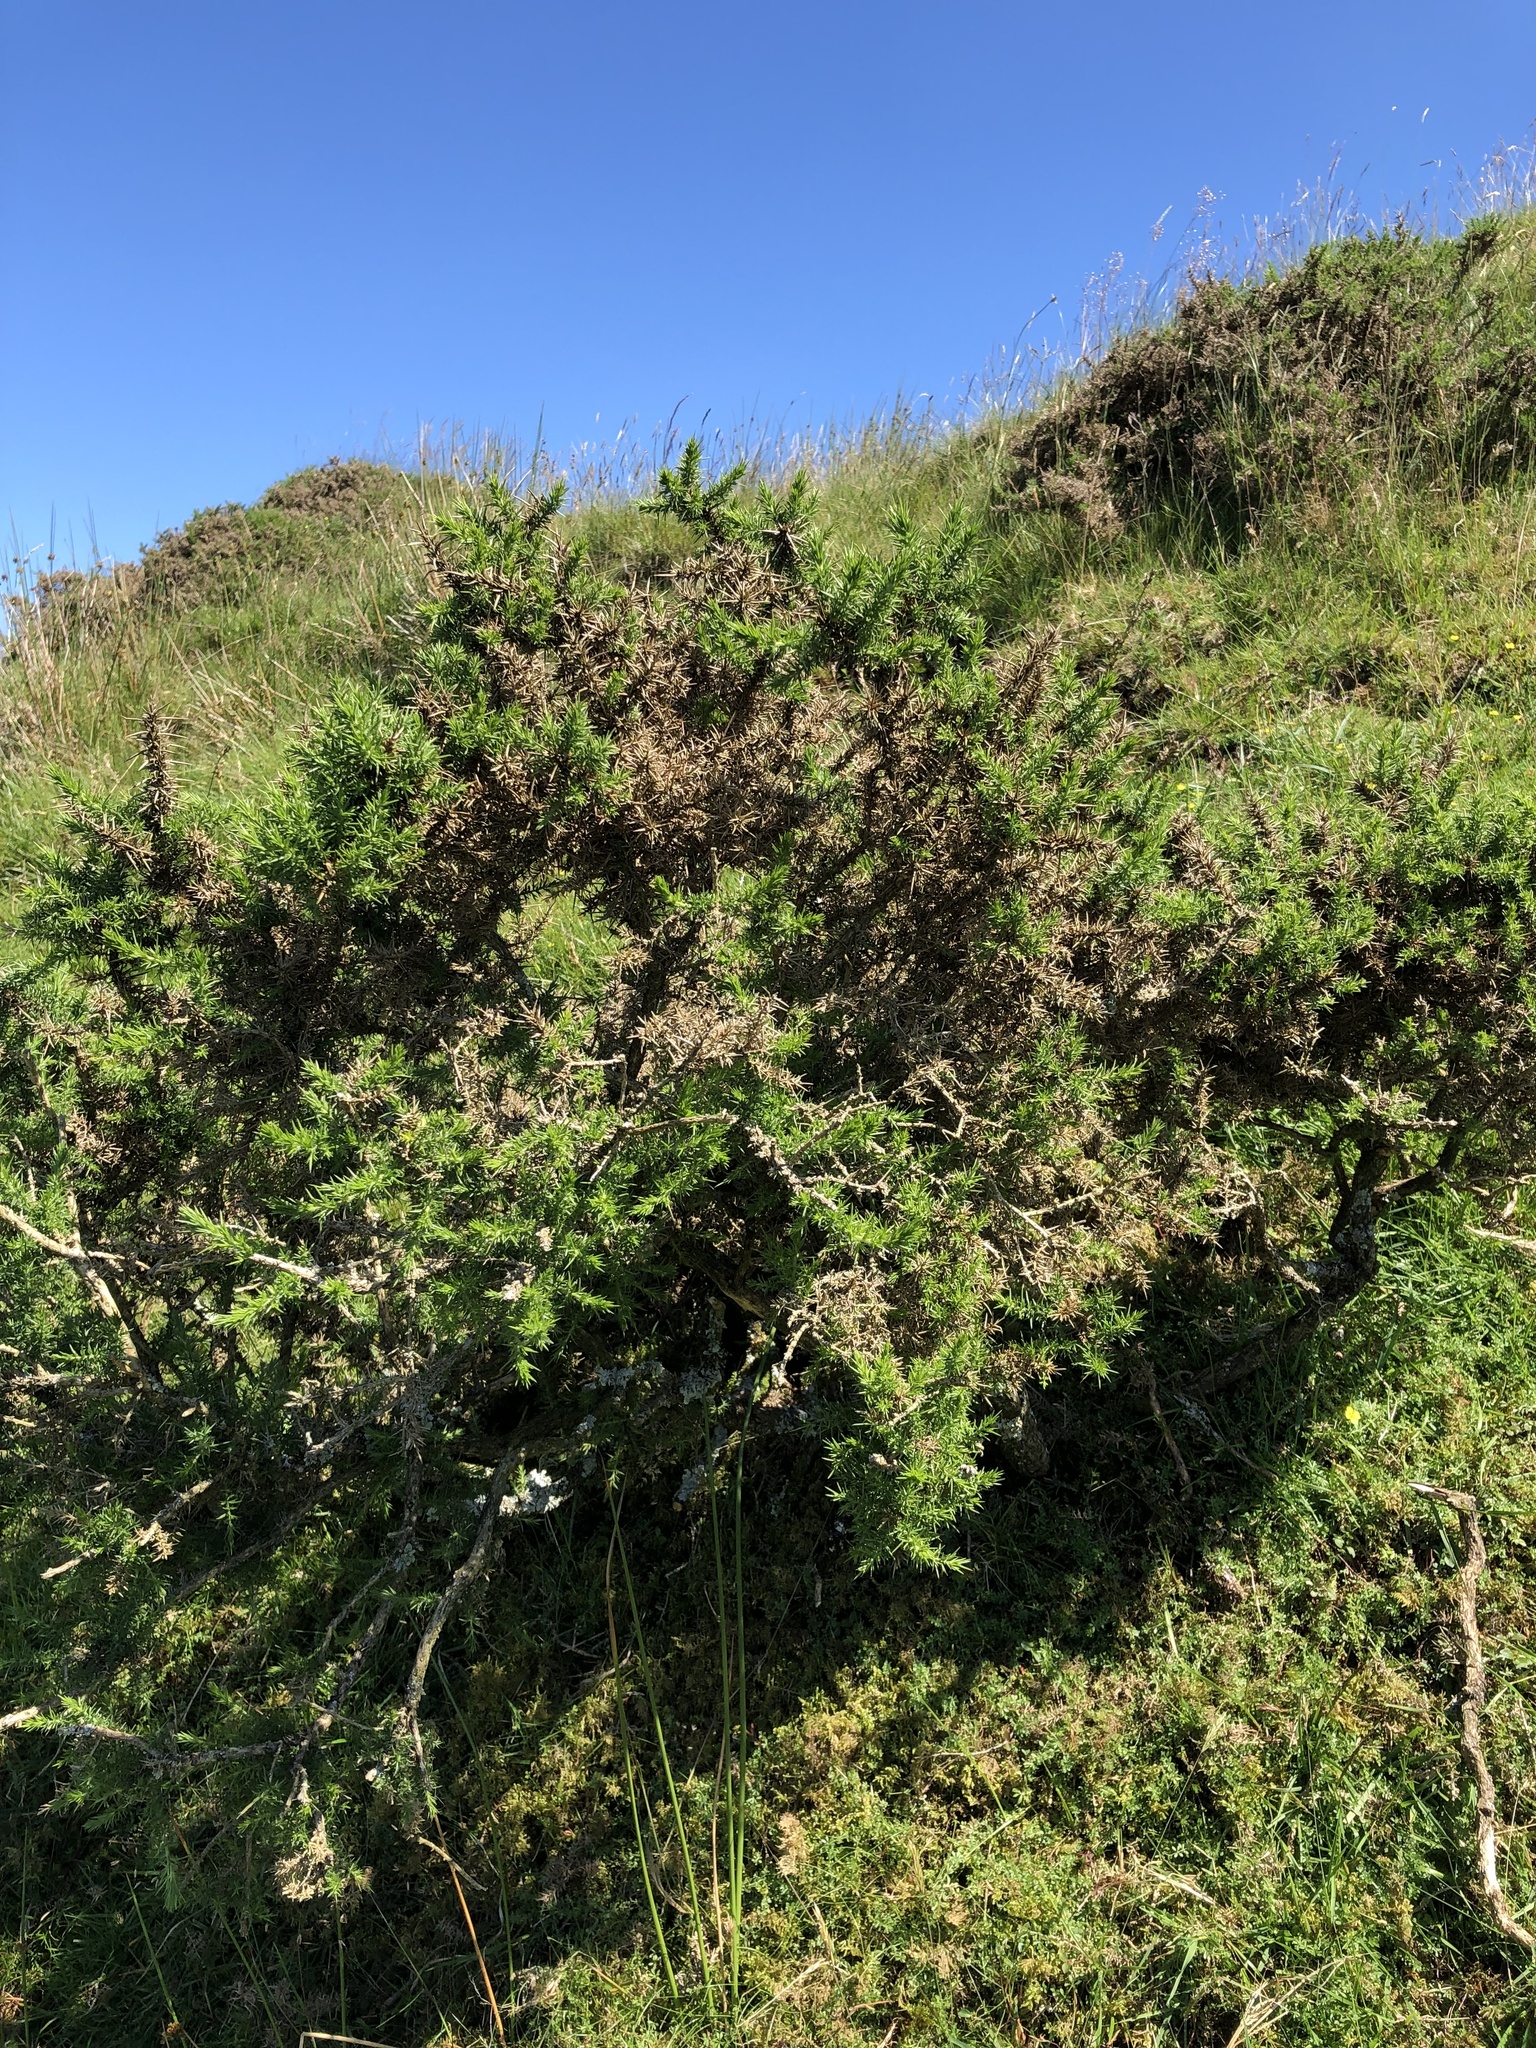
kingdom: Plantae
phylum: Tracheophyta
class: Magnoliopsida
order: Fabales
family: Fabaceae
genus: Ulex
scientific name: Ulex europaeus
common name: Common gorse
